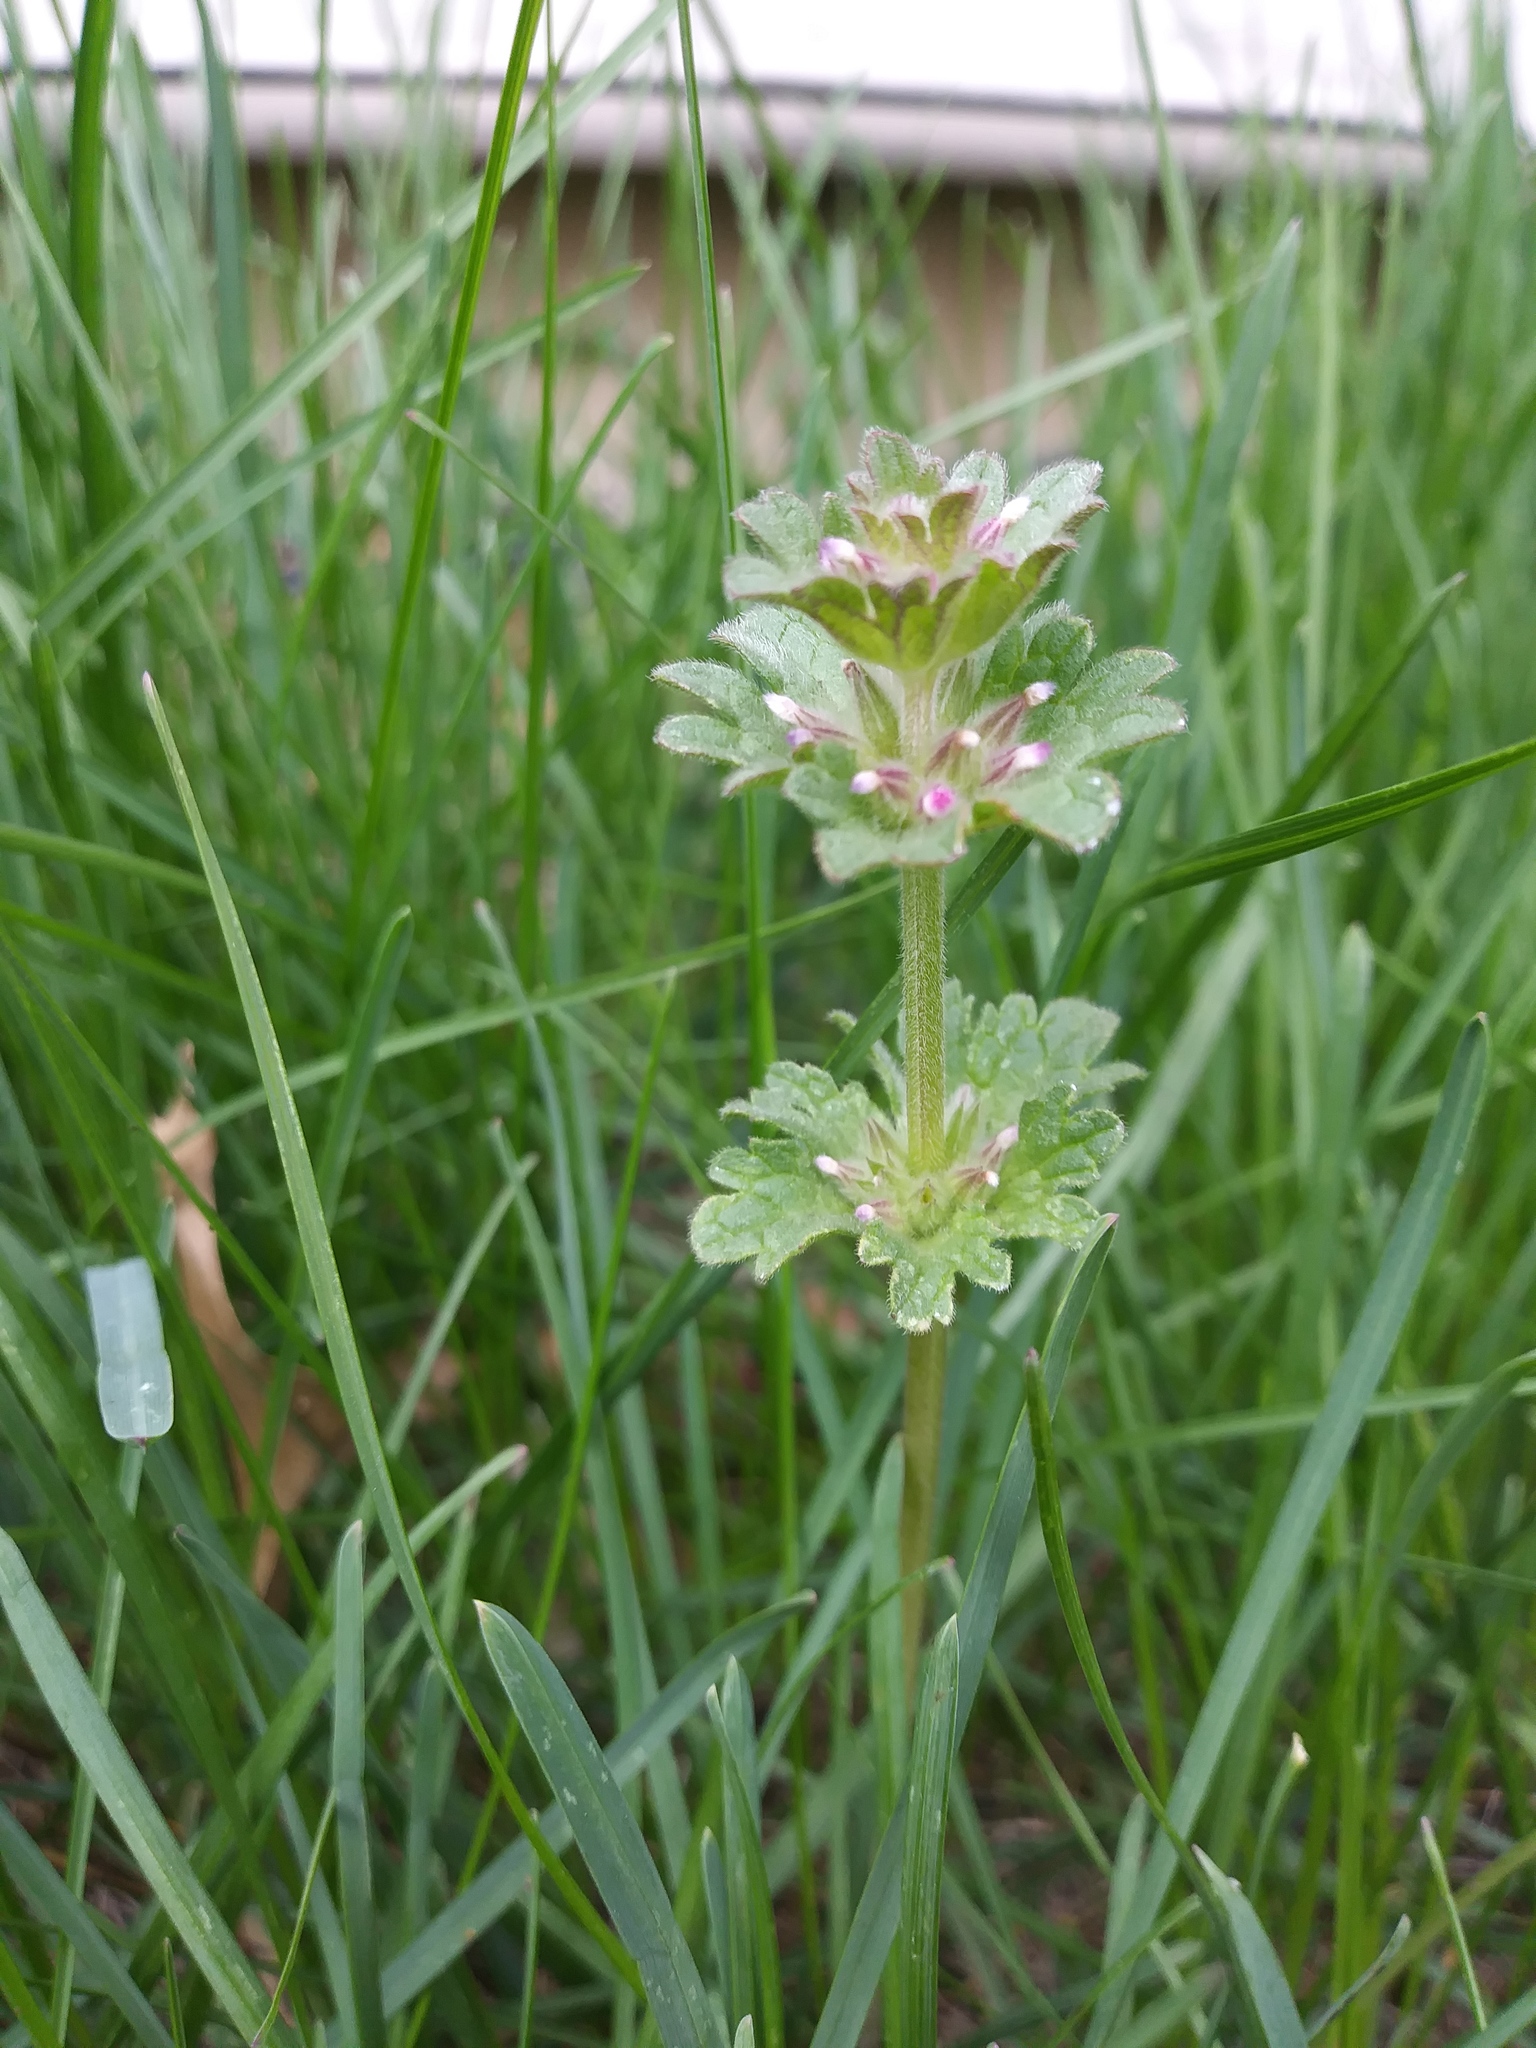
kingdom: Plantae
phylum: Tracheophyta
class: Magnoliopsida
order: Lamiales
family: Lamiaceae
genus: Lamium
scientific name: Lamium amplexicaule
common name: Henbit dead-nettle
